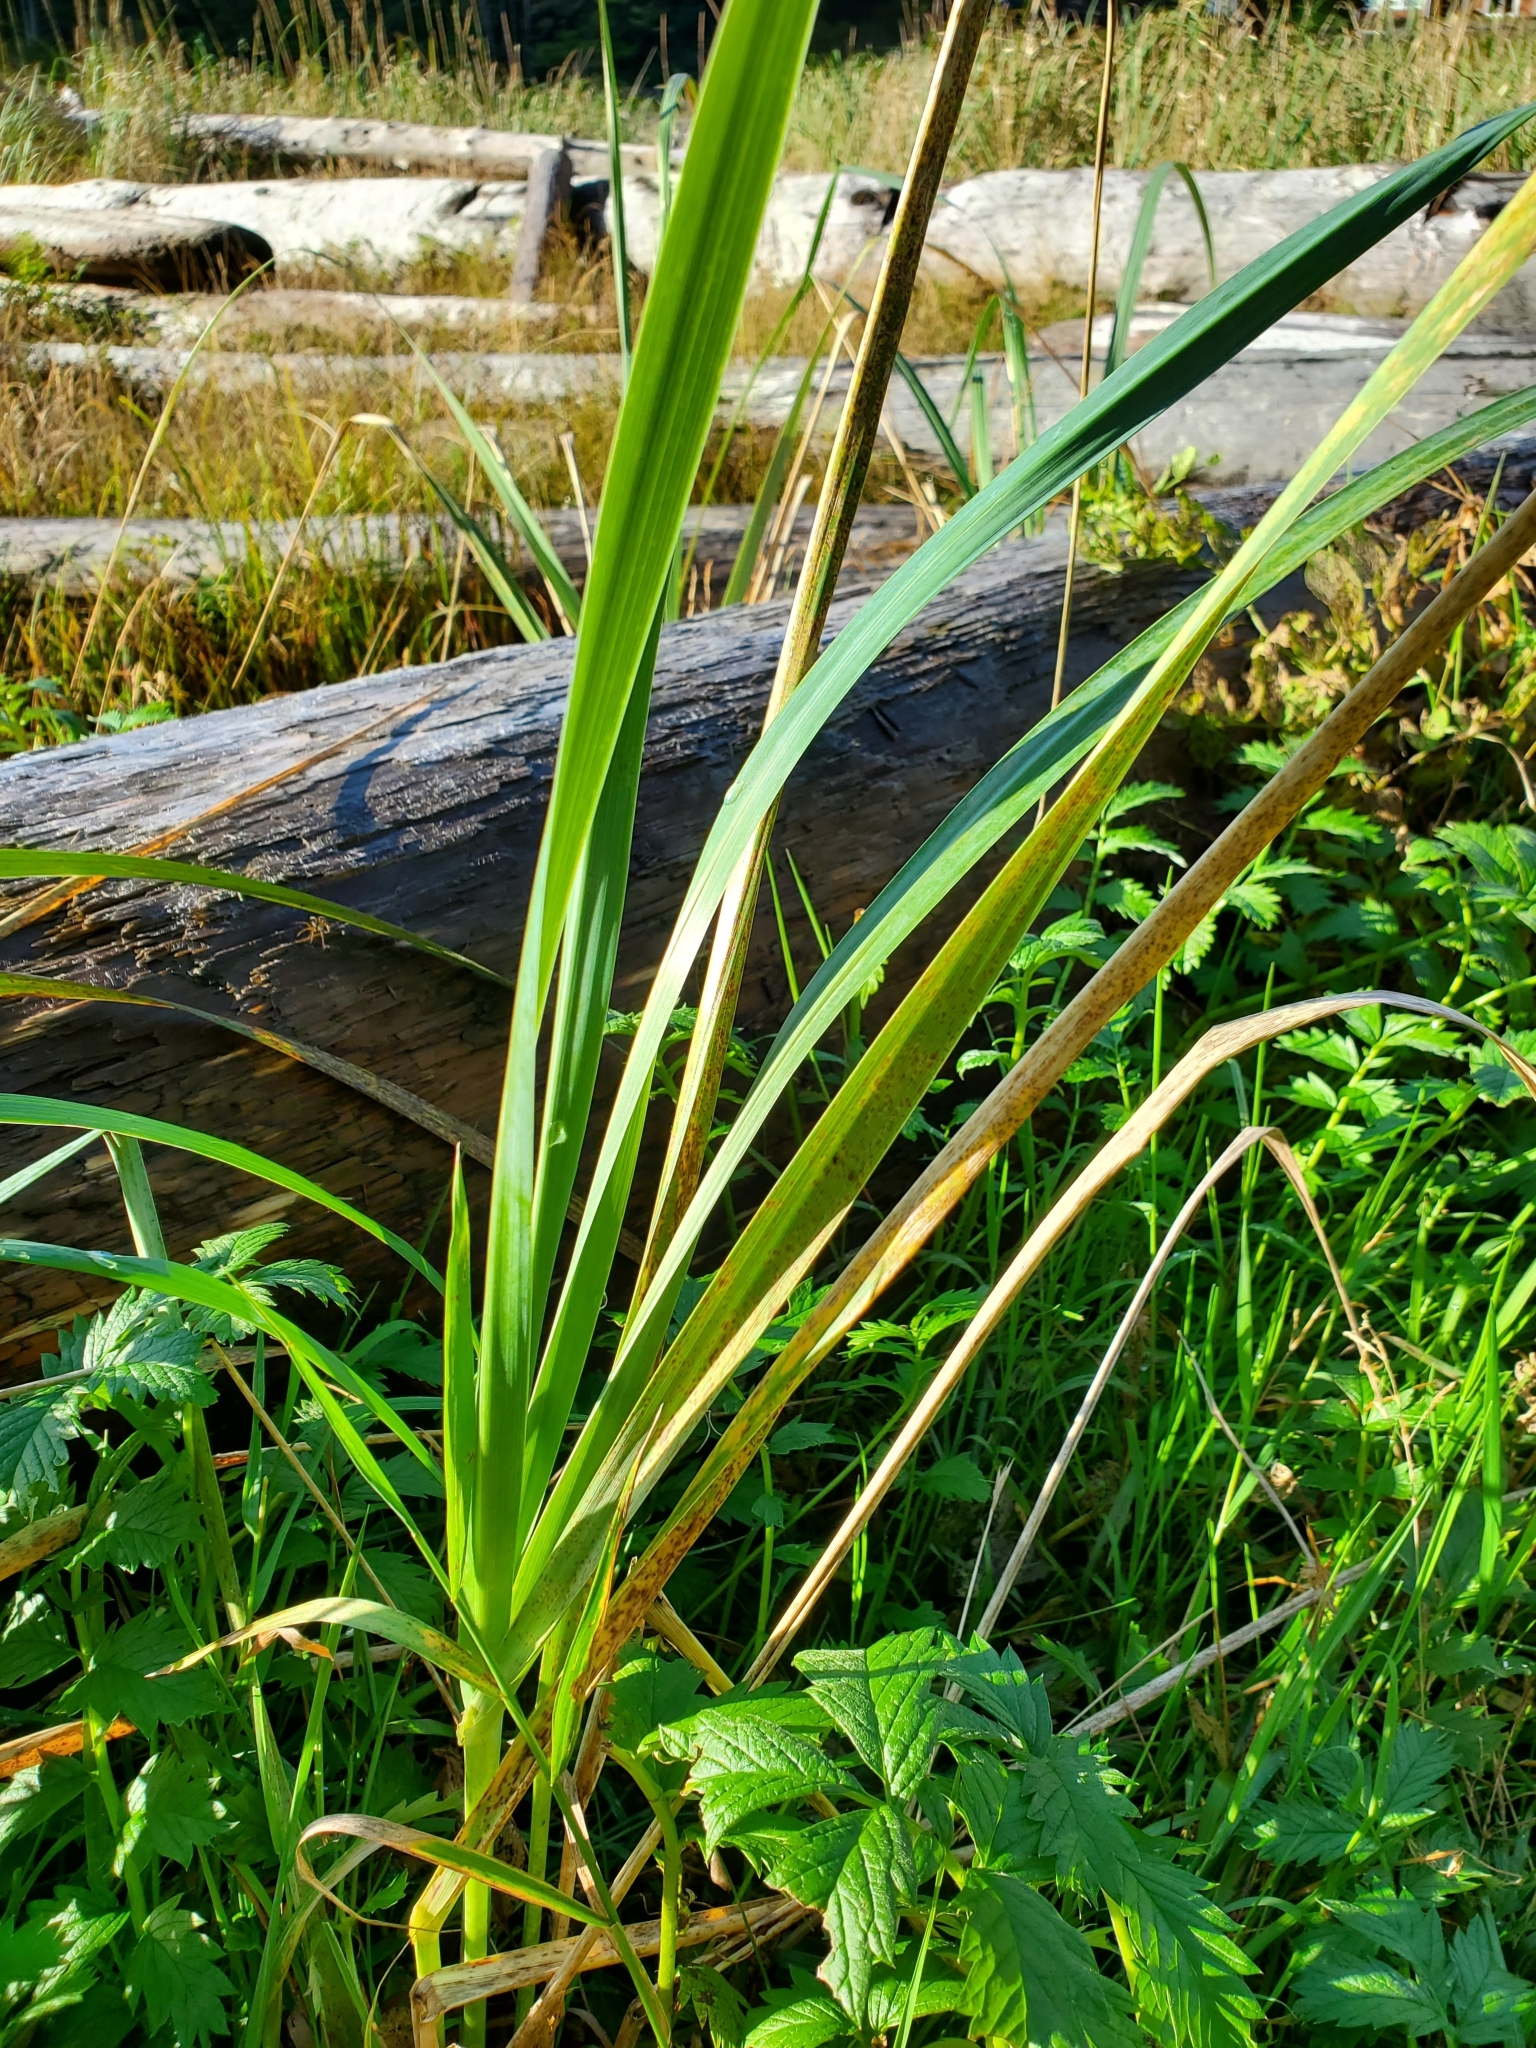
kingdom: Plantae
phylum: Tracheophyta
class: Liliopsida
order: Poales
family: Poaceae
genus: Leymus
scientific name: Leymus mollis
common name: American dune grass
